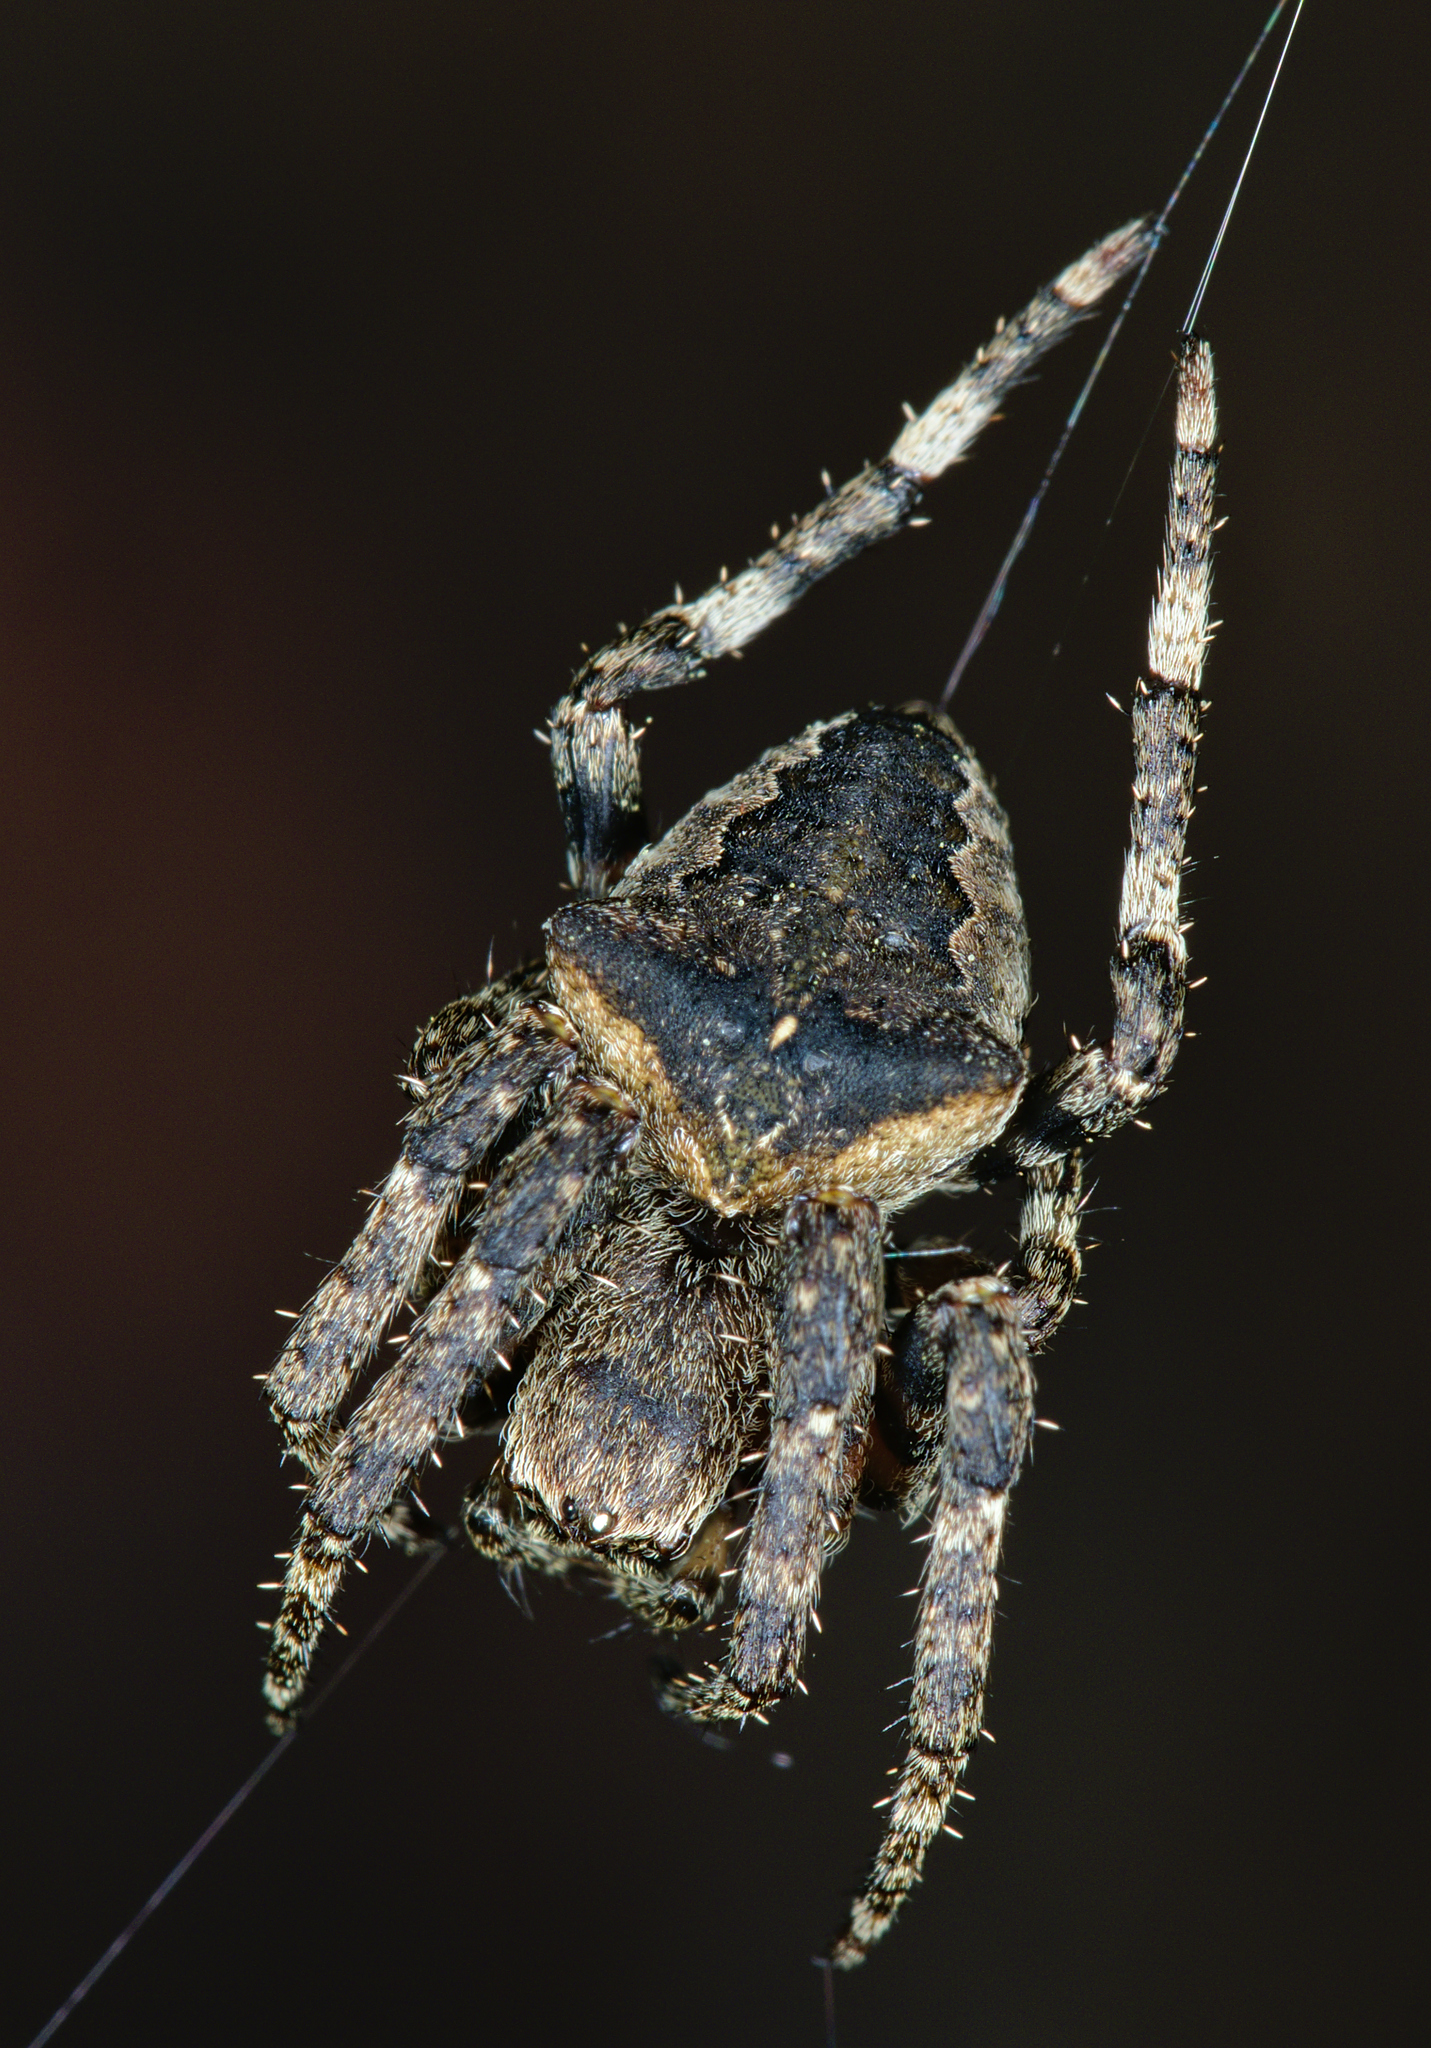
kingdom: Animalia
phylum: Arthropoda
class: Arachnida
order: Araneae
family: Araneidae
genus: Araneus
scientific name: Araneus angulatus
